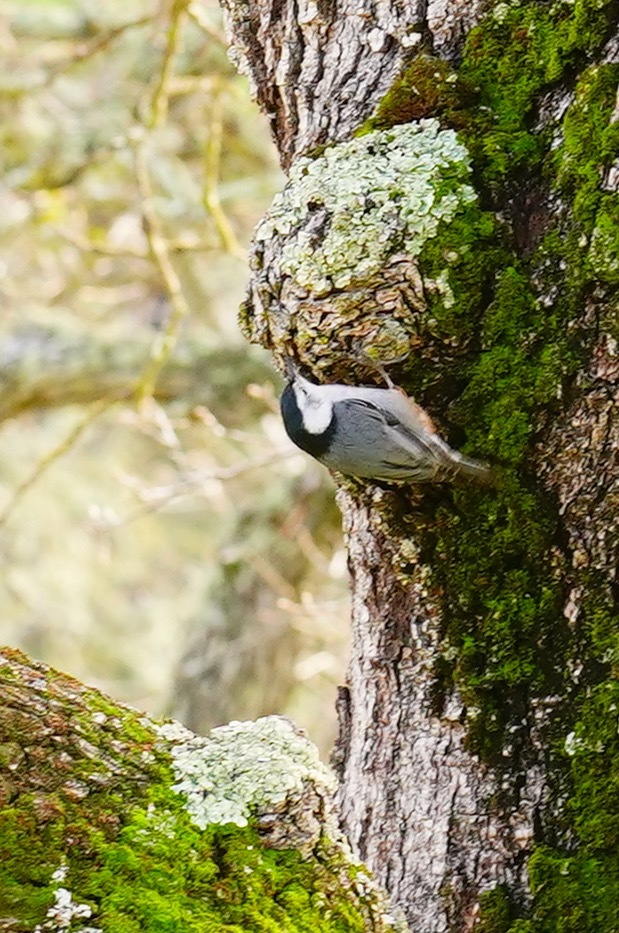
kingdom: Animalia
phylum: Chordata
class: Aves
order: Passeriformes
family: Sittidae
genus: Sitta
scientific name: Sitta carolinensis
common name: White-breasted nuthatch
